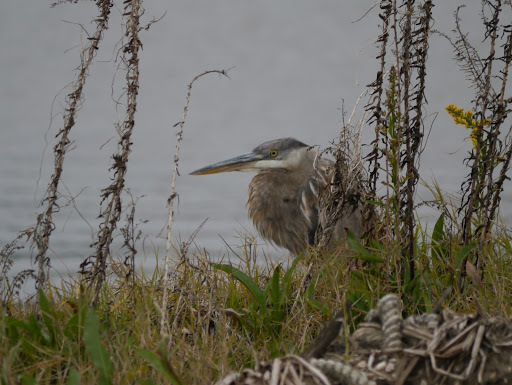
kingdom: Animalia
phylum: Chordata
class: Aves
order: Pelecaniformes
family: Ardeidae
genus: Ardea
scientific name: Ardea herodias
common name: Great blue heron
